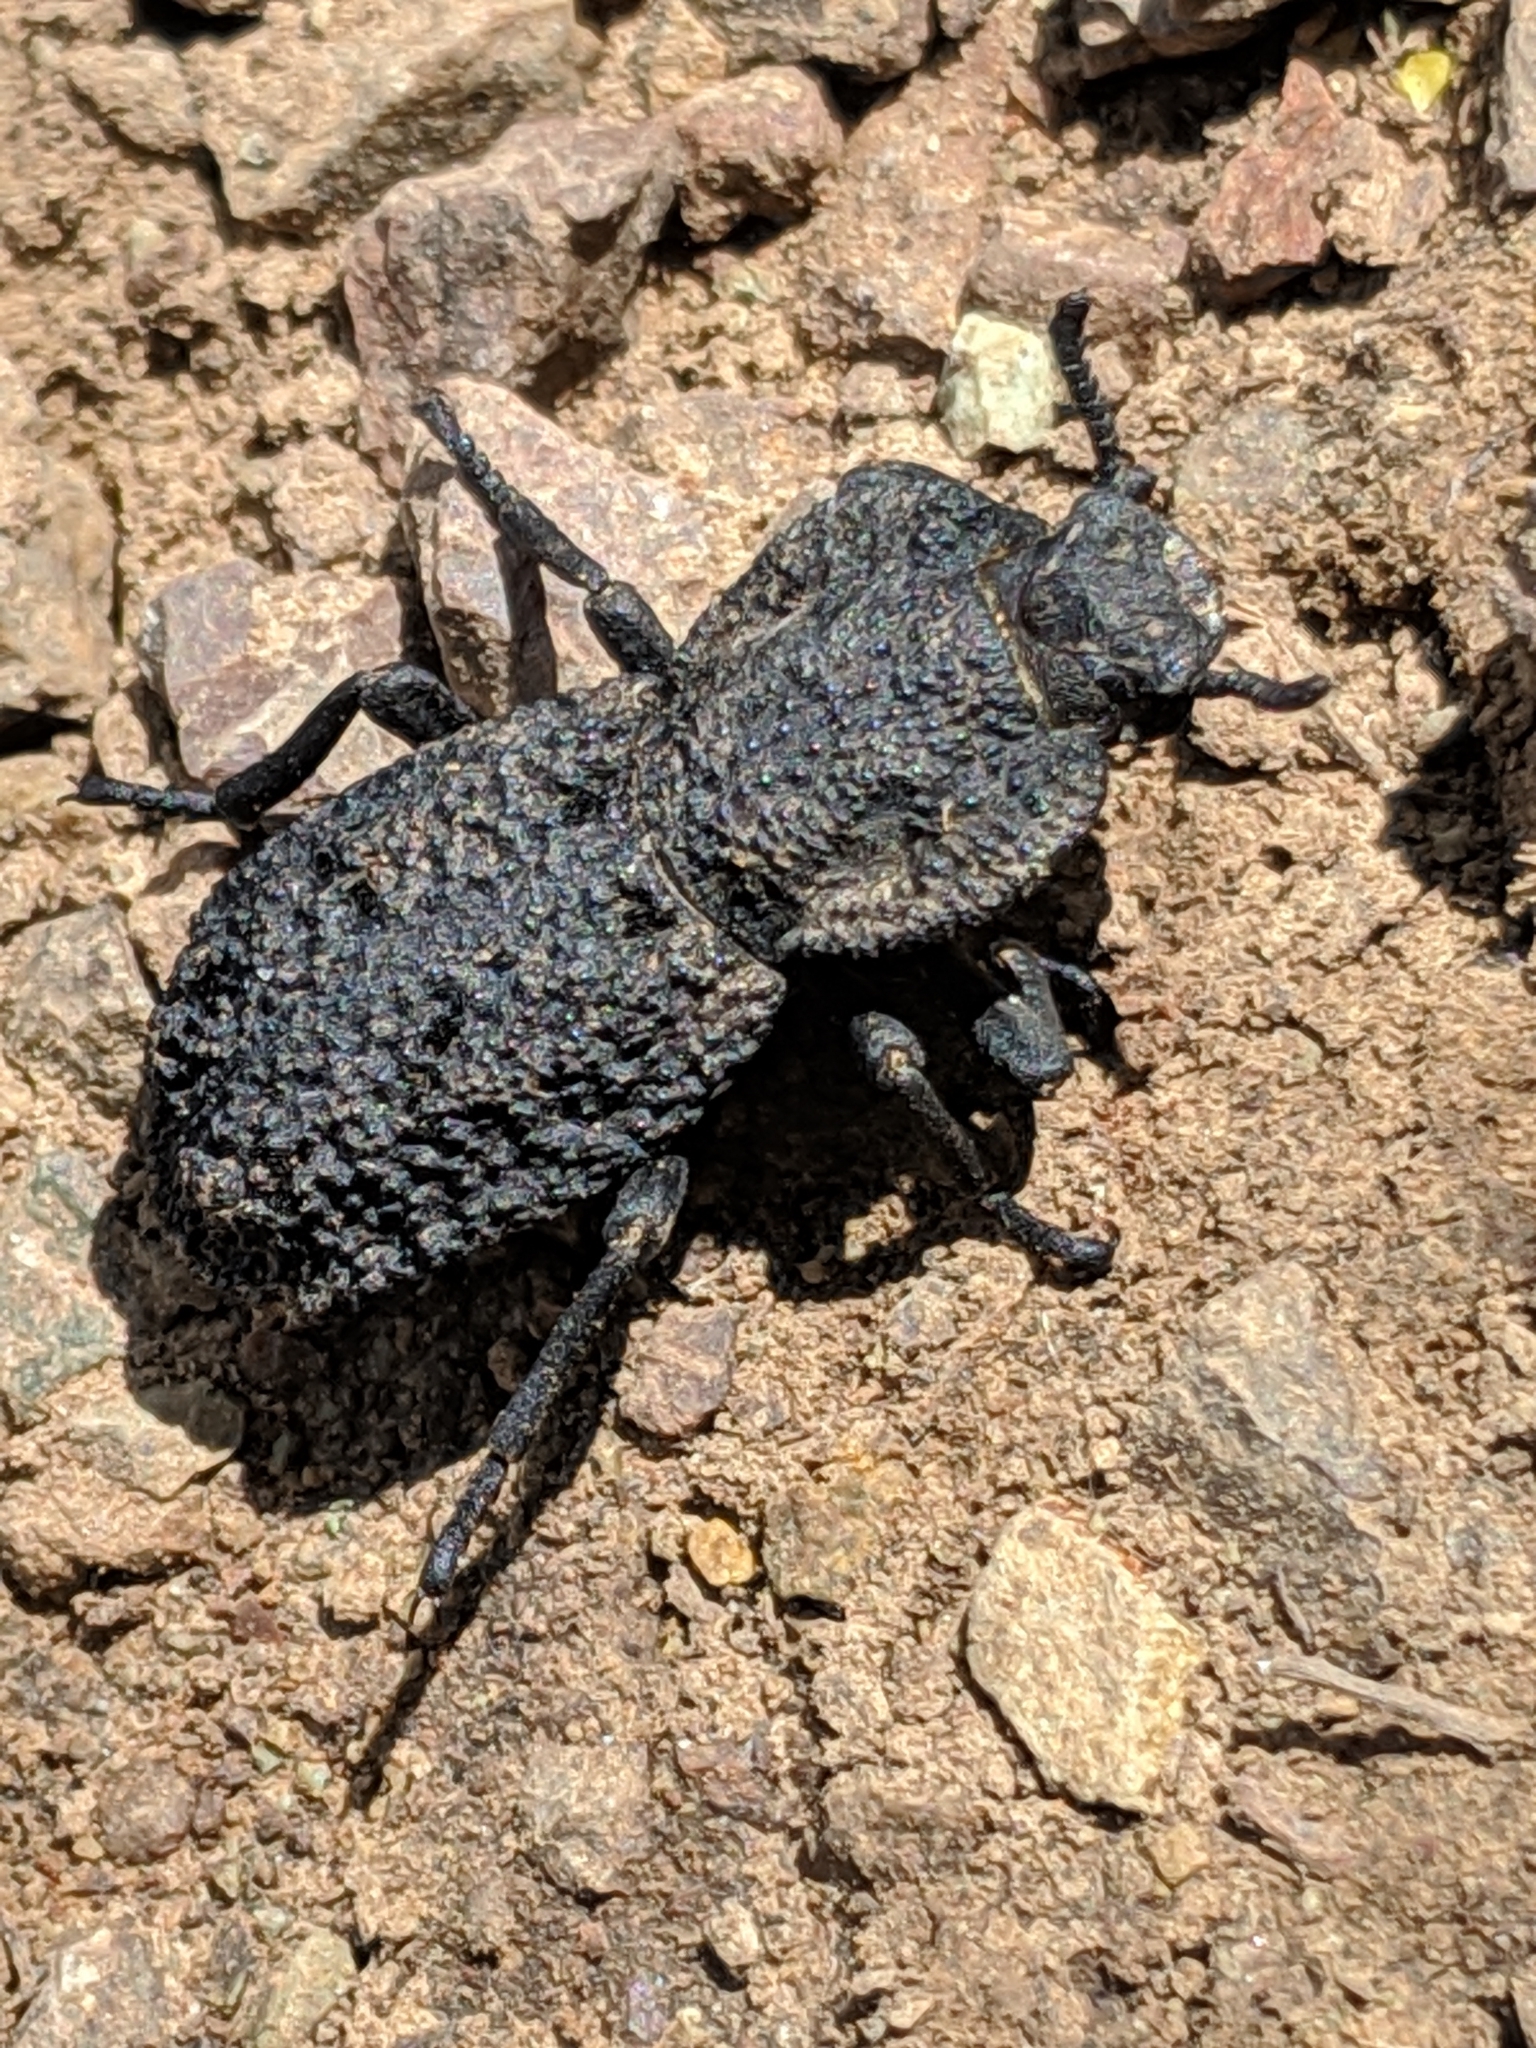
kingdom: Animalia
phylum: Arthropoda
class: Insecta
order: Coleoptera
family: Zopheridae
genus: Phloeodes
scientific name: Phloeodes diabolicus
